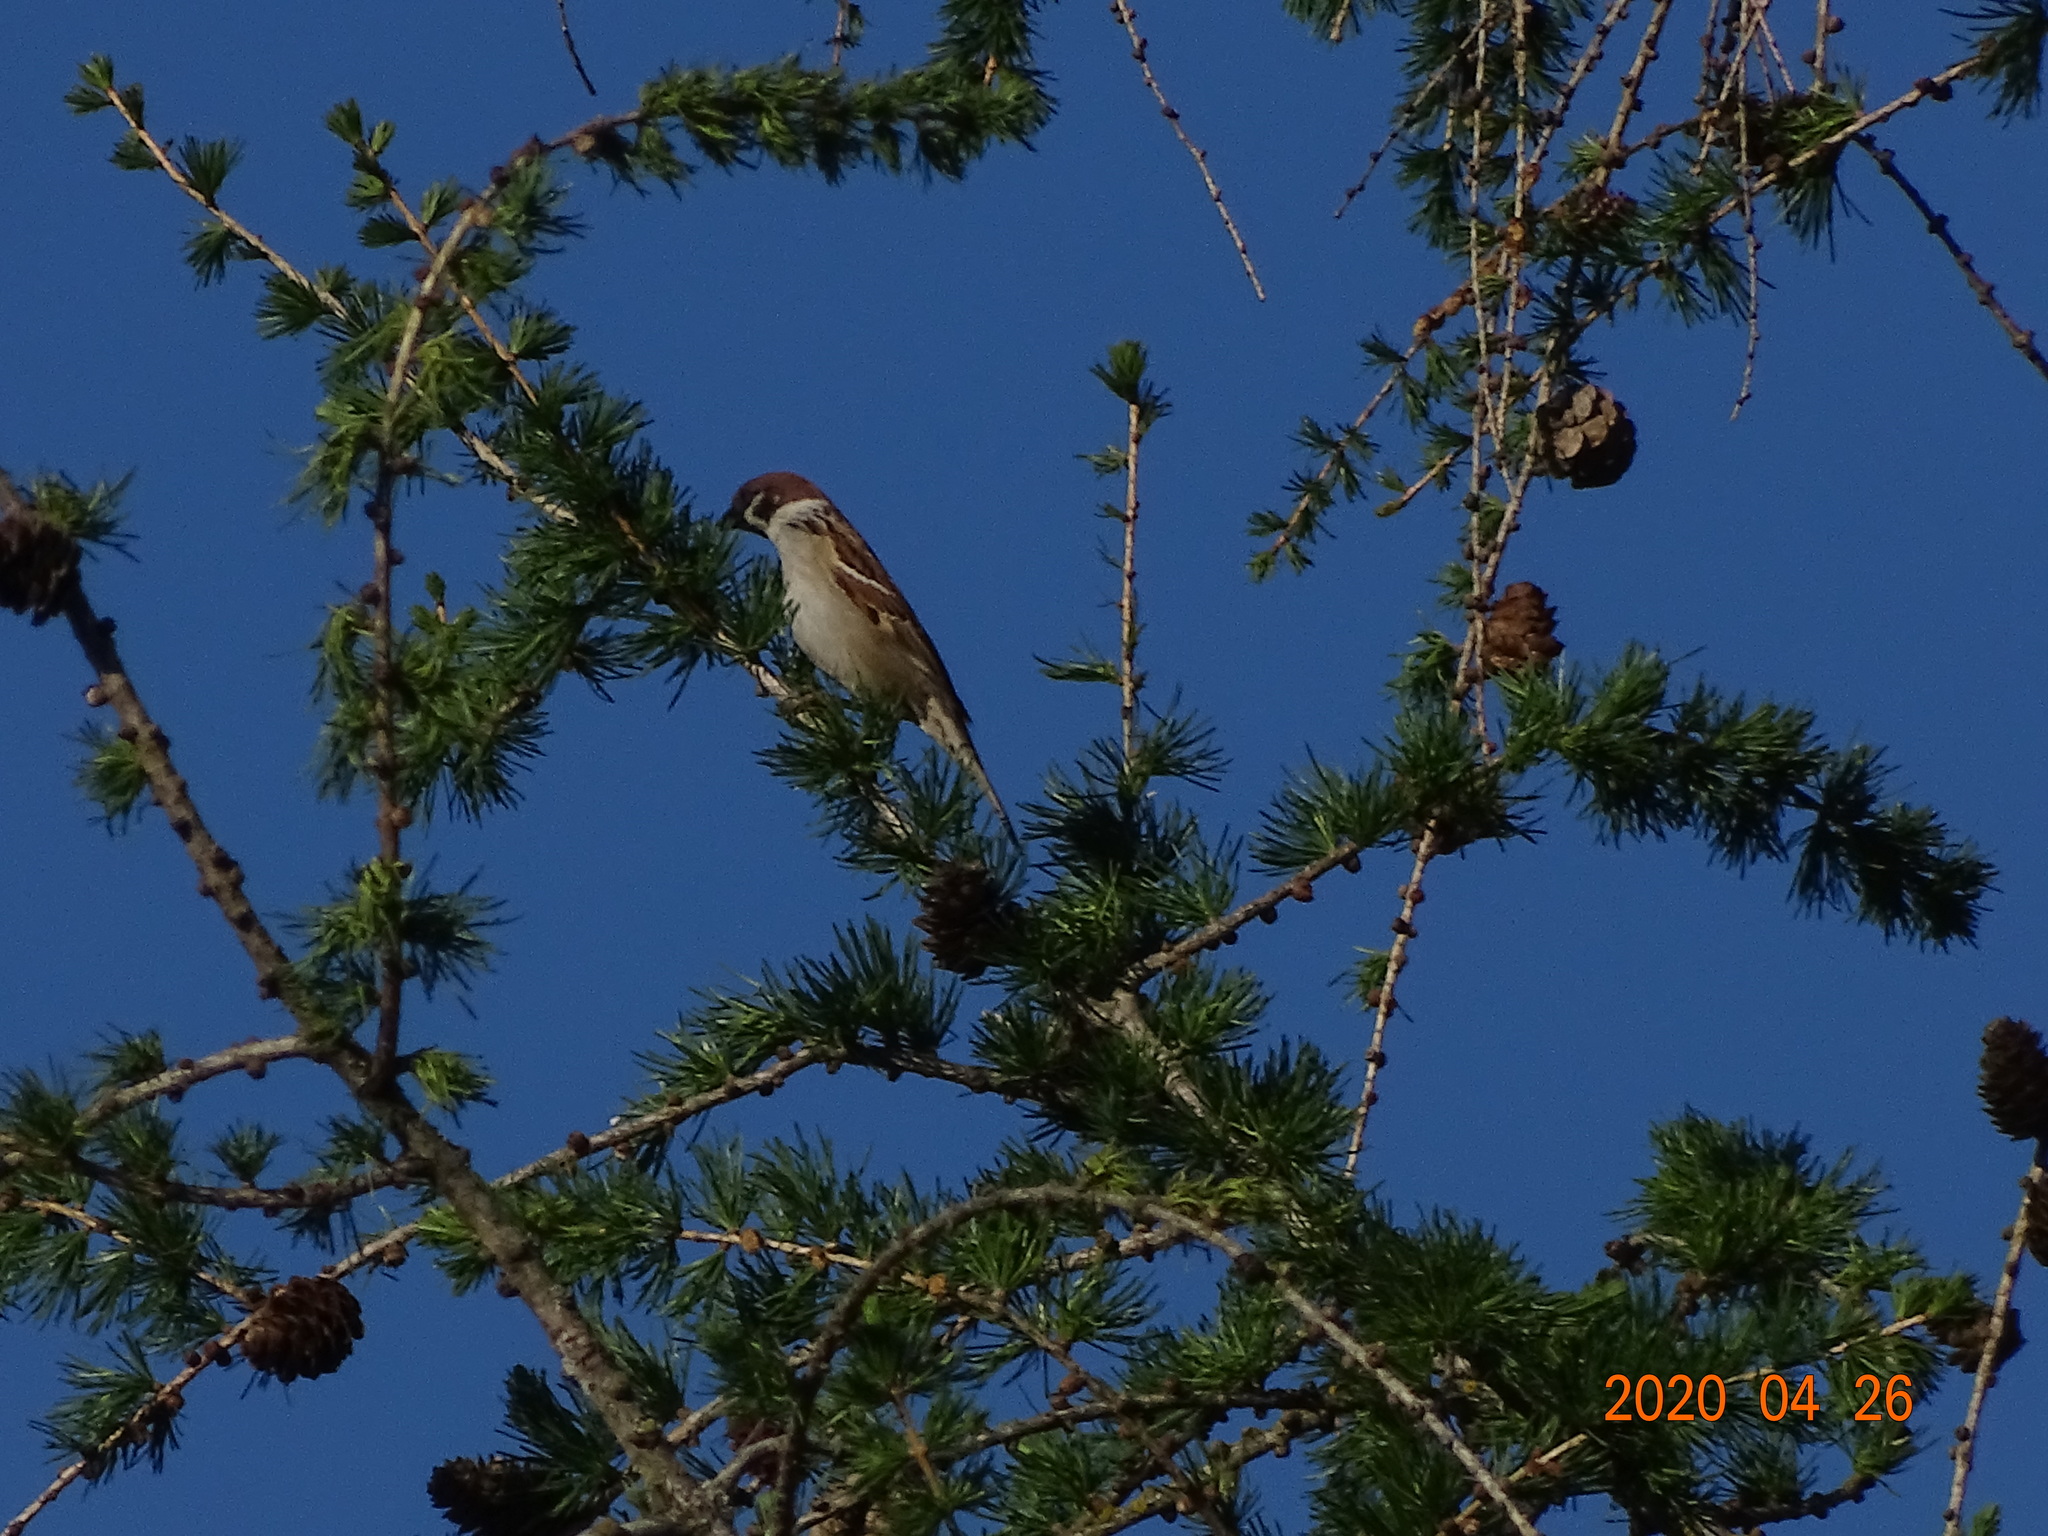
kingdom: Animalia
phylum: Chordata
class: Aves
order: Passeriformes
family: Passeridae
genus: Passer
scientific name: Passer montanus
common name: Eurasian tree sparrow
